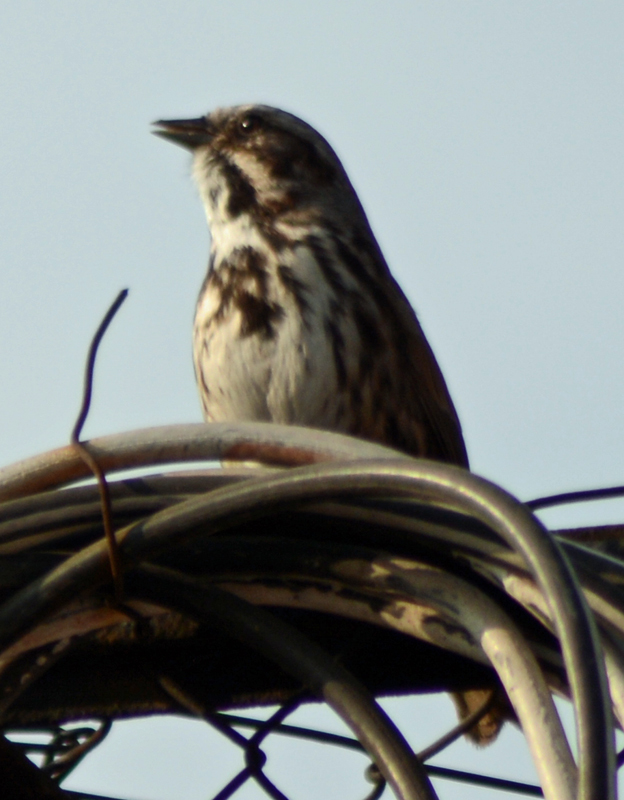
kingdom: Animalia
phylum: Chordata
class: Aves
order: Passeriformes
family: Passerellidae
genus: Melospiza
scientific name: Melospiza melodia
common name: Song sparrow
